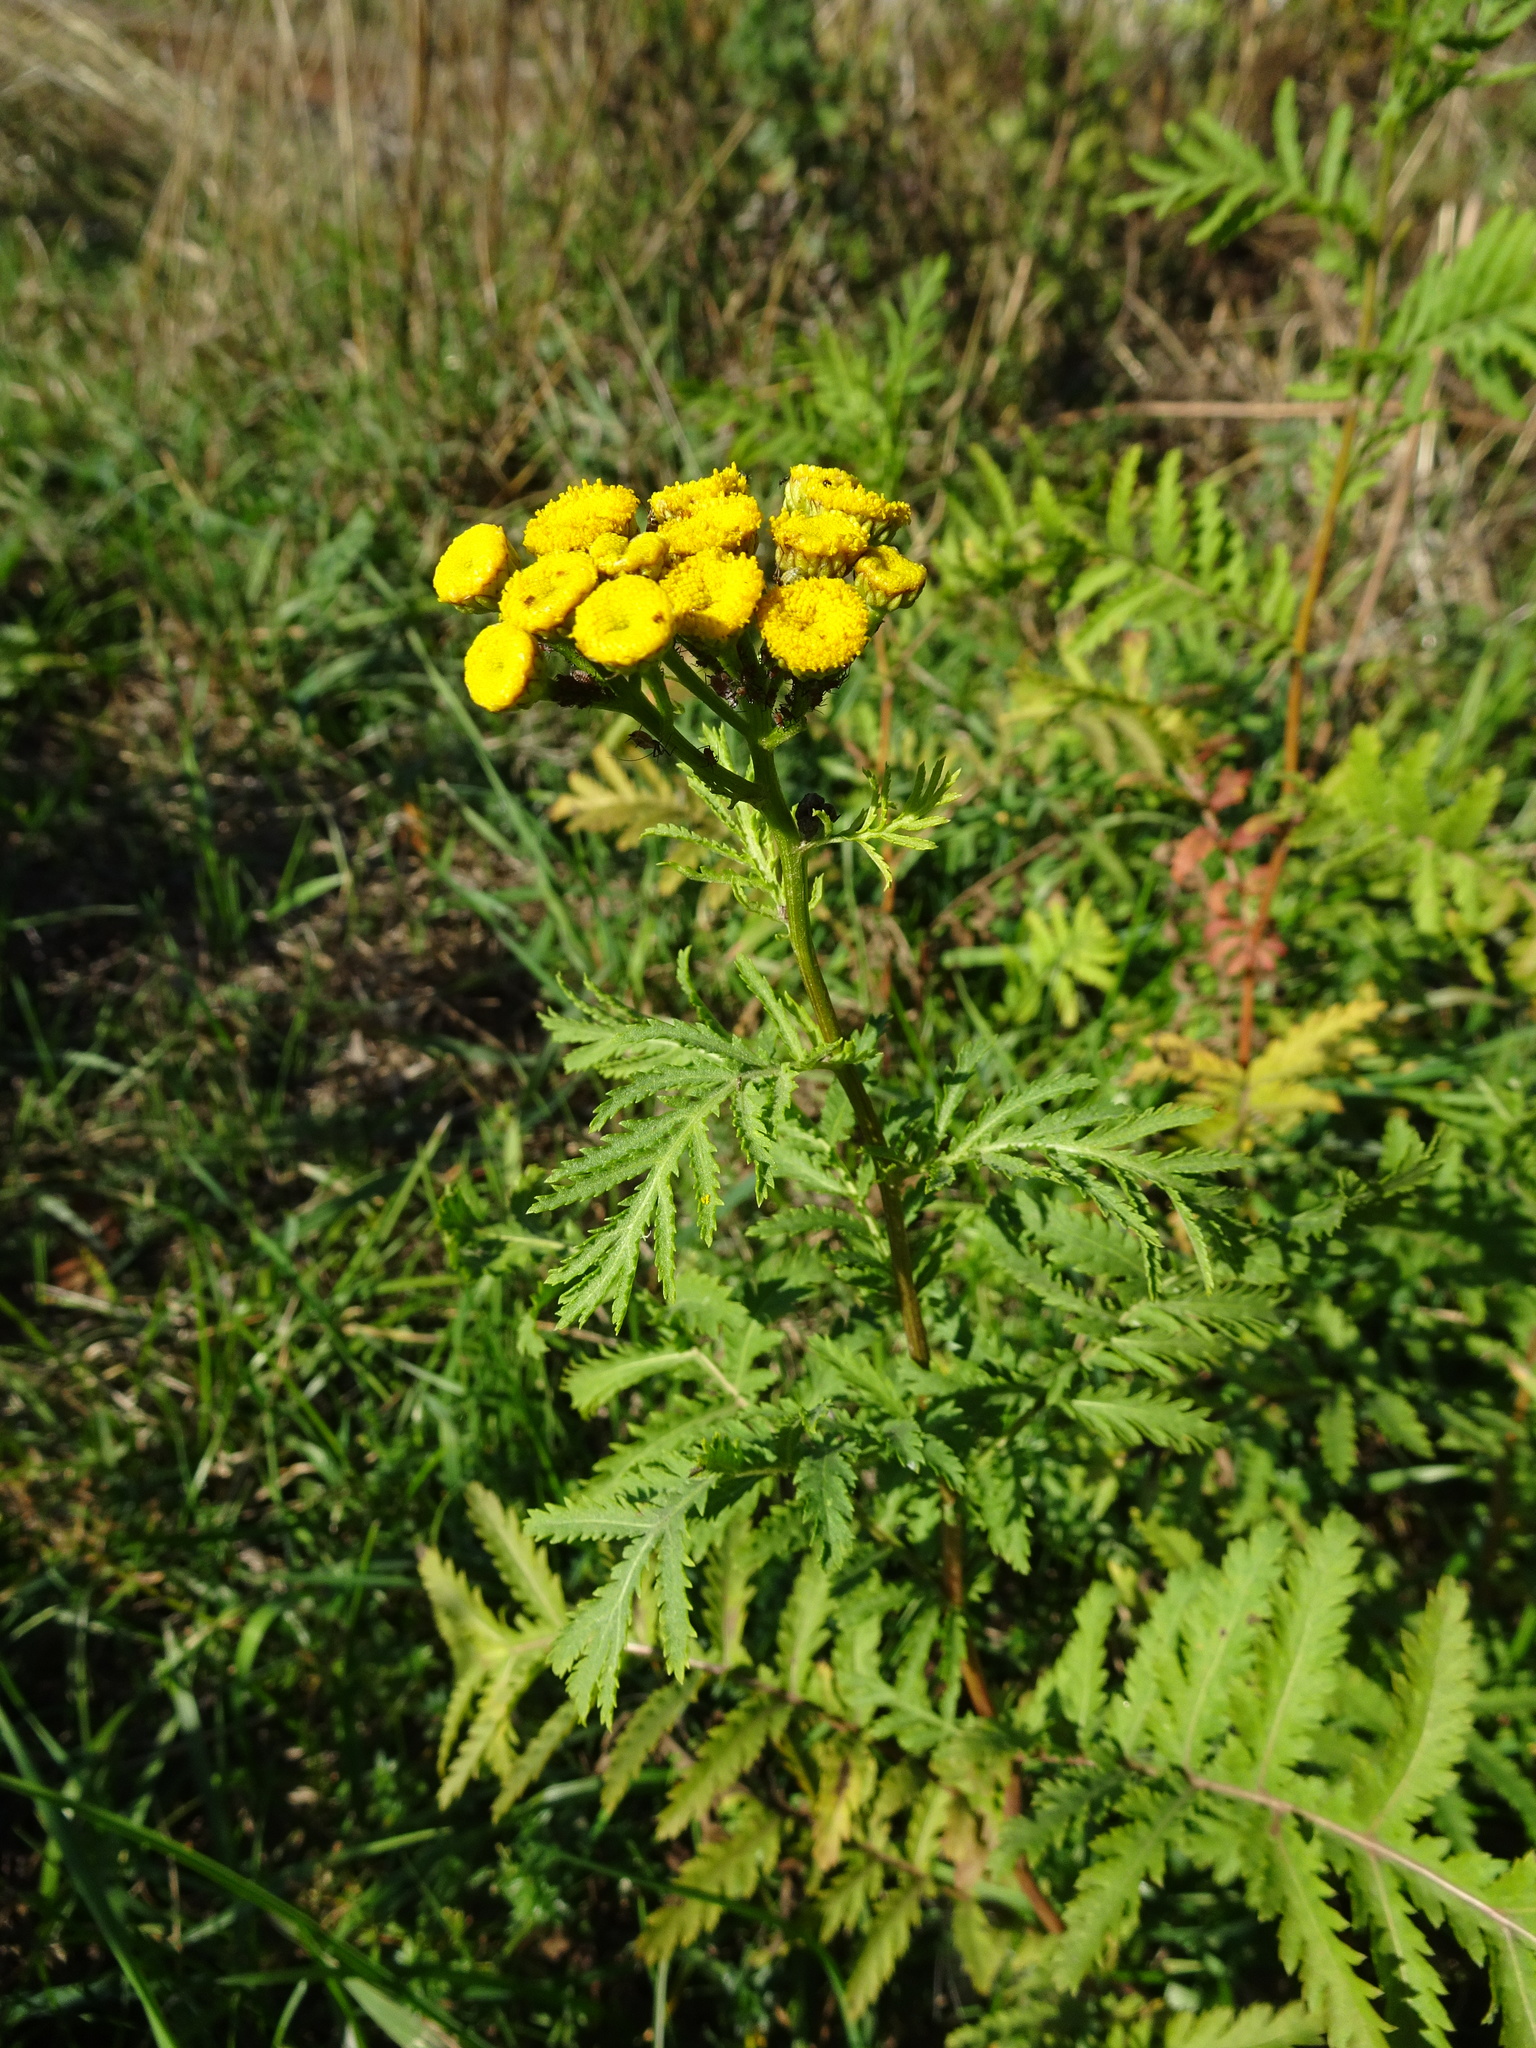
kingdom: Plantae
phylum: Tracheophyta
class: Magnoliopsida
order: Asterales
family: Asteraceae
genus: Tanacetum
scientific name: Tanacetum vulgare
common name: Common tansy
